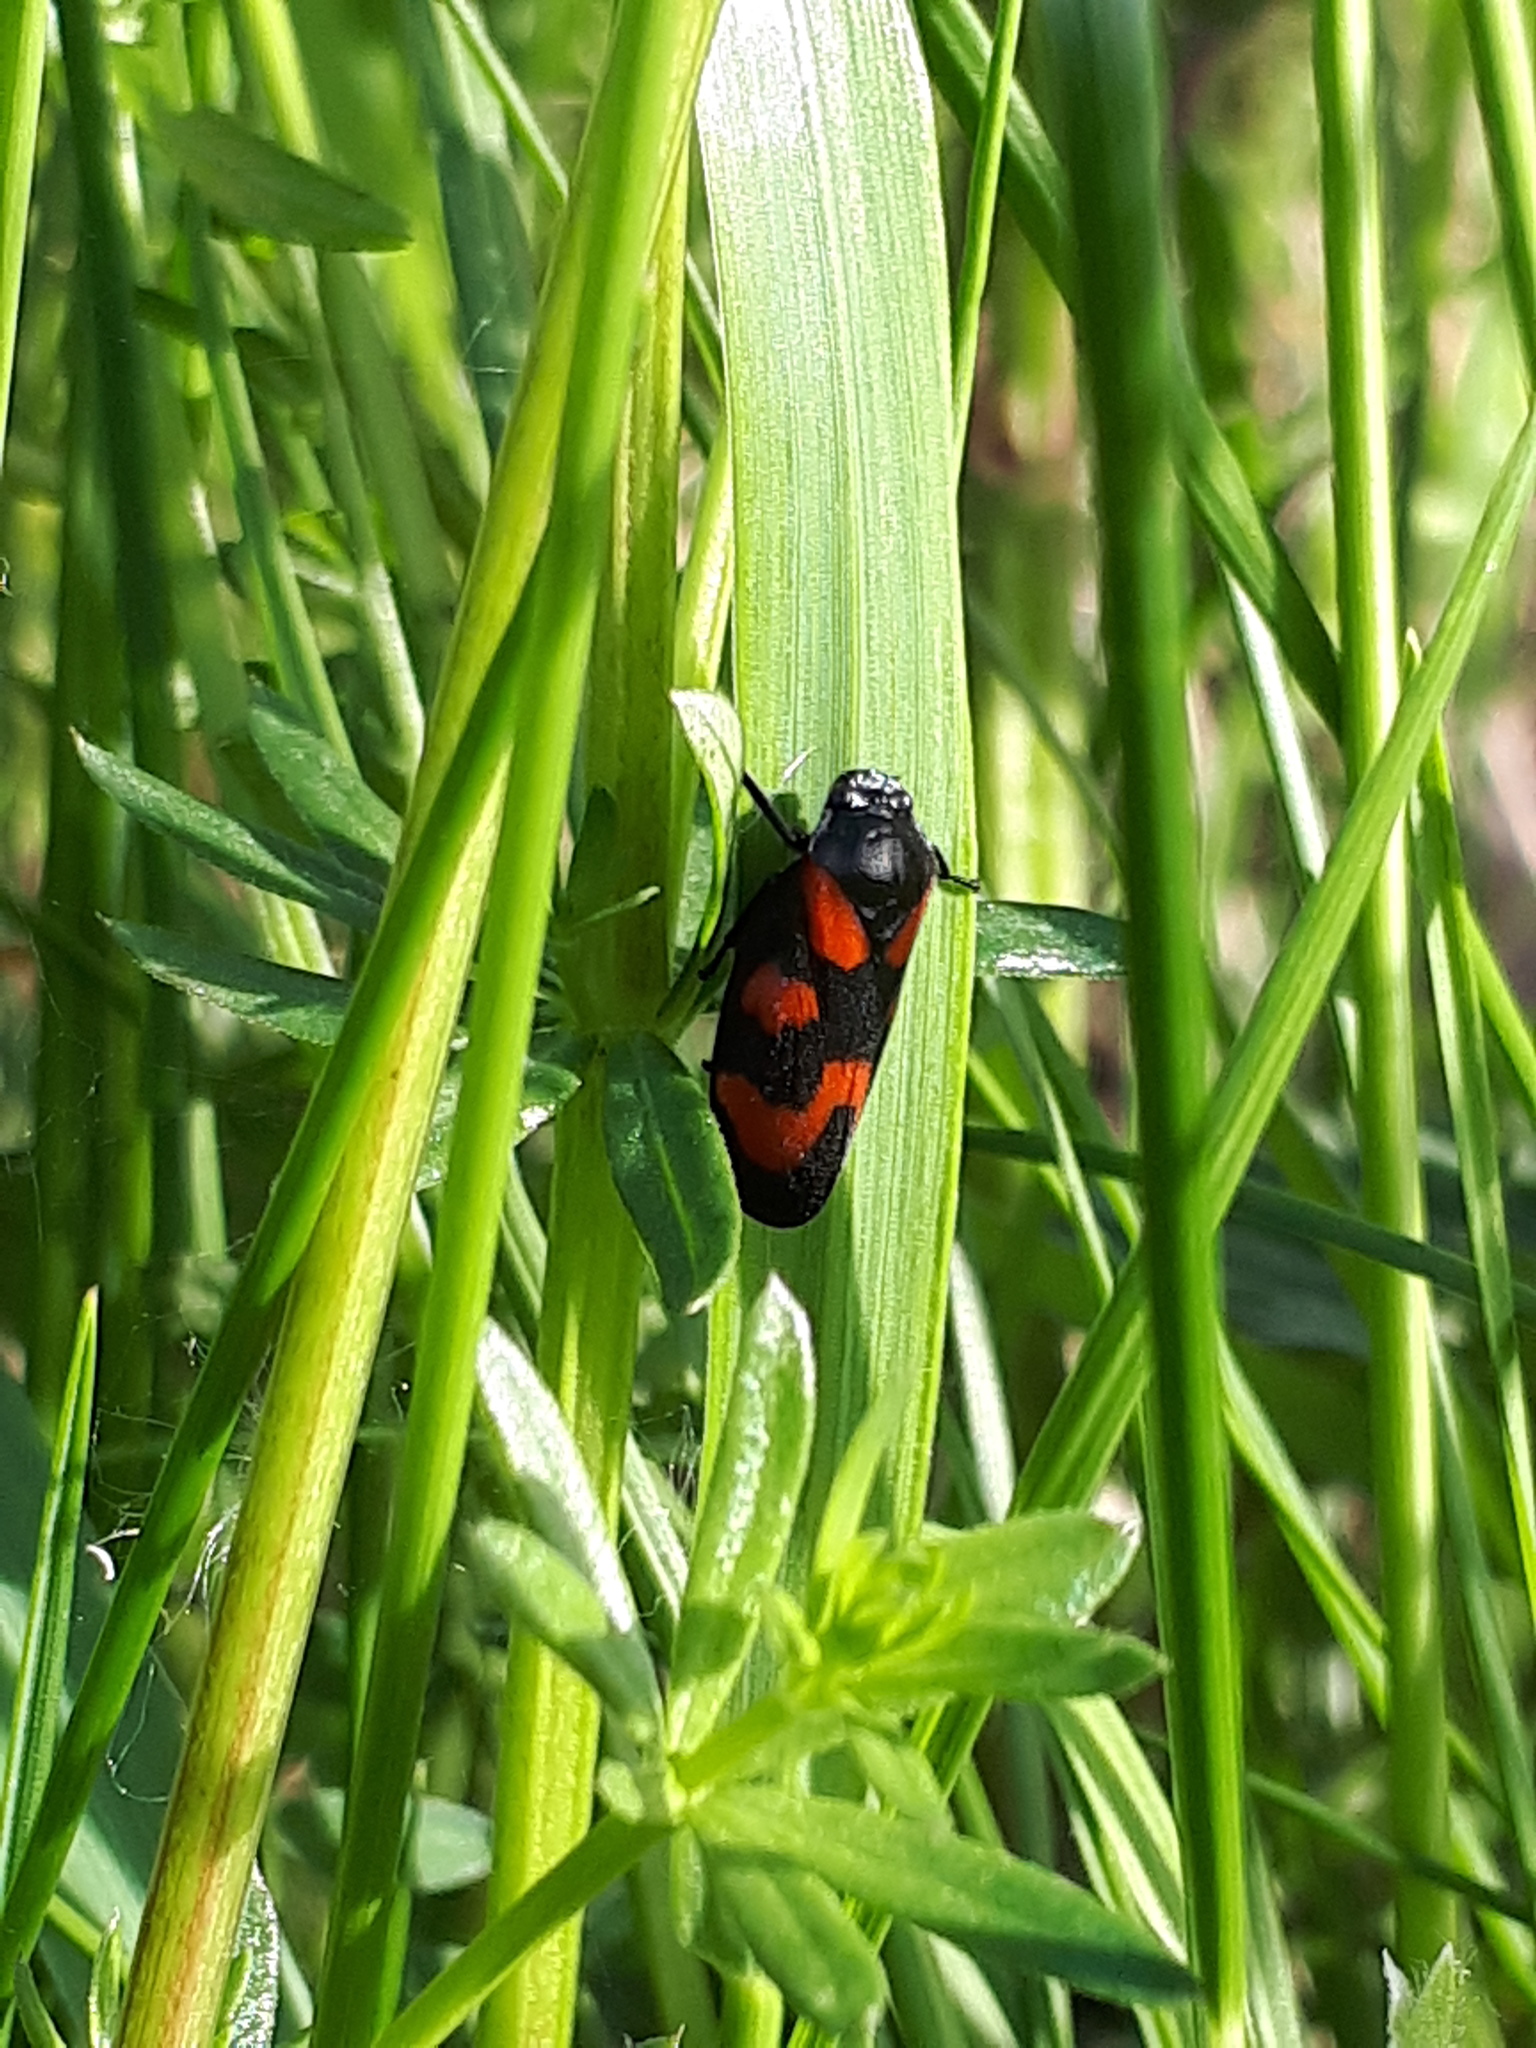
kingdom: Animalia
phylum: Arthropoda
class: Insecta
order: Hemiptera
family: Cercopidae
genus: Cercopis
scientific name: Cercopis vulnerata
